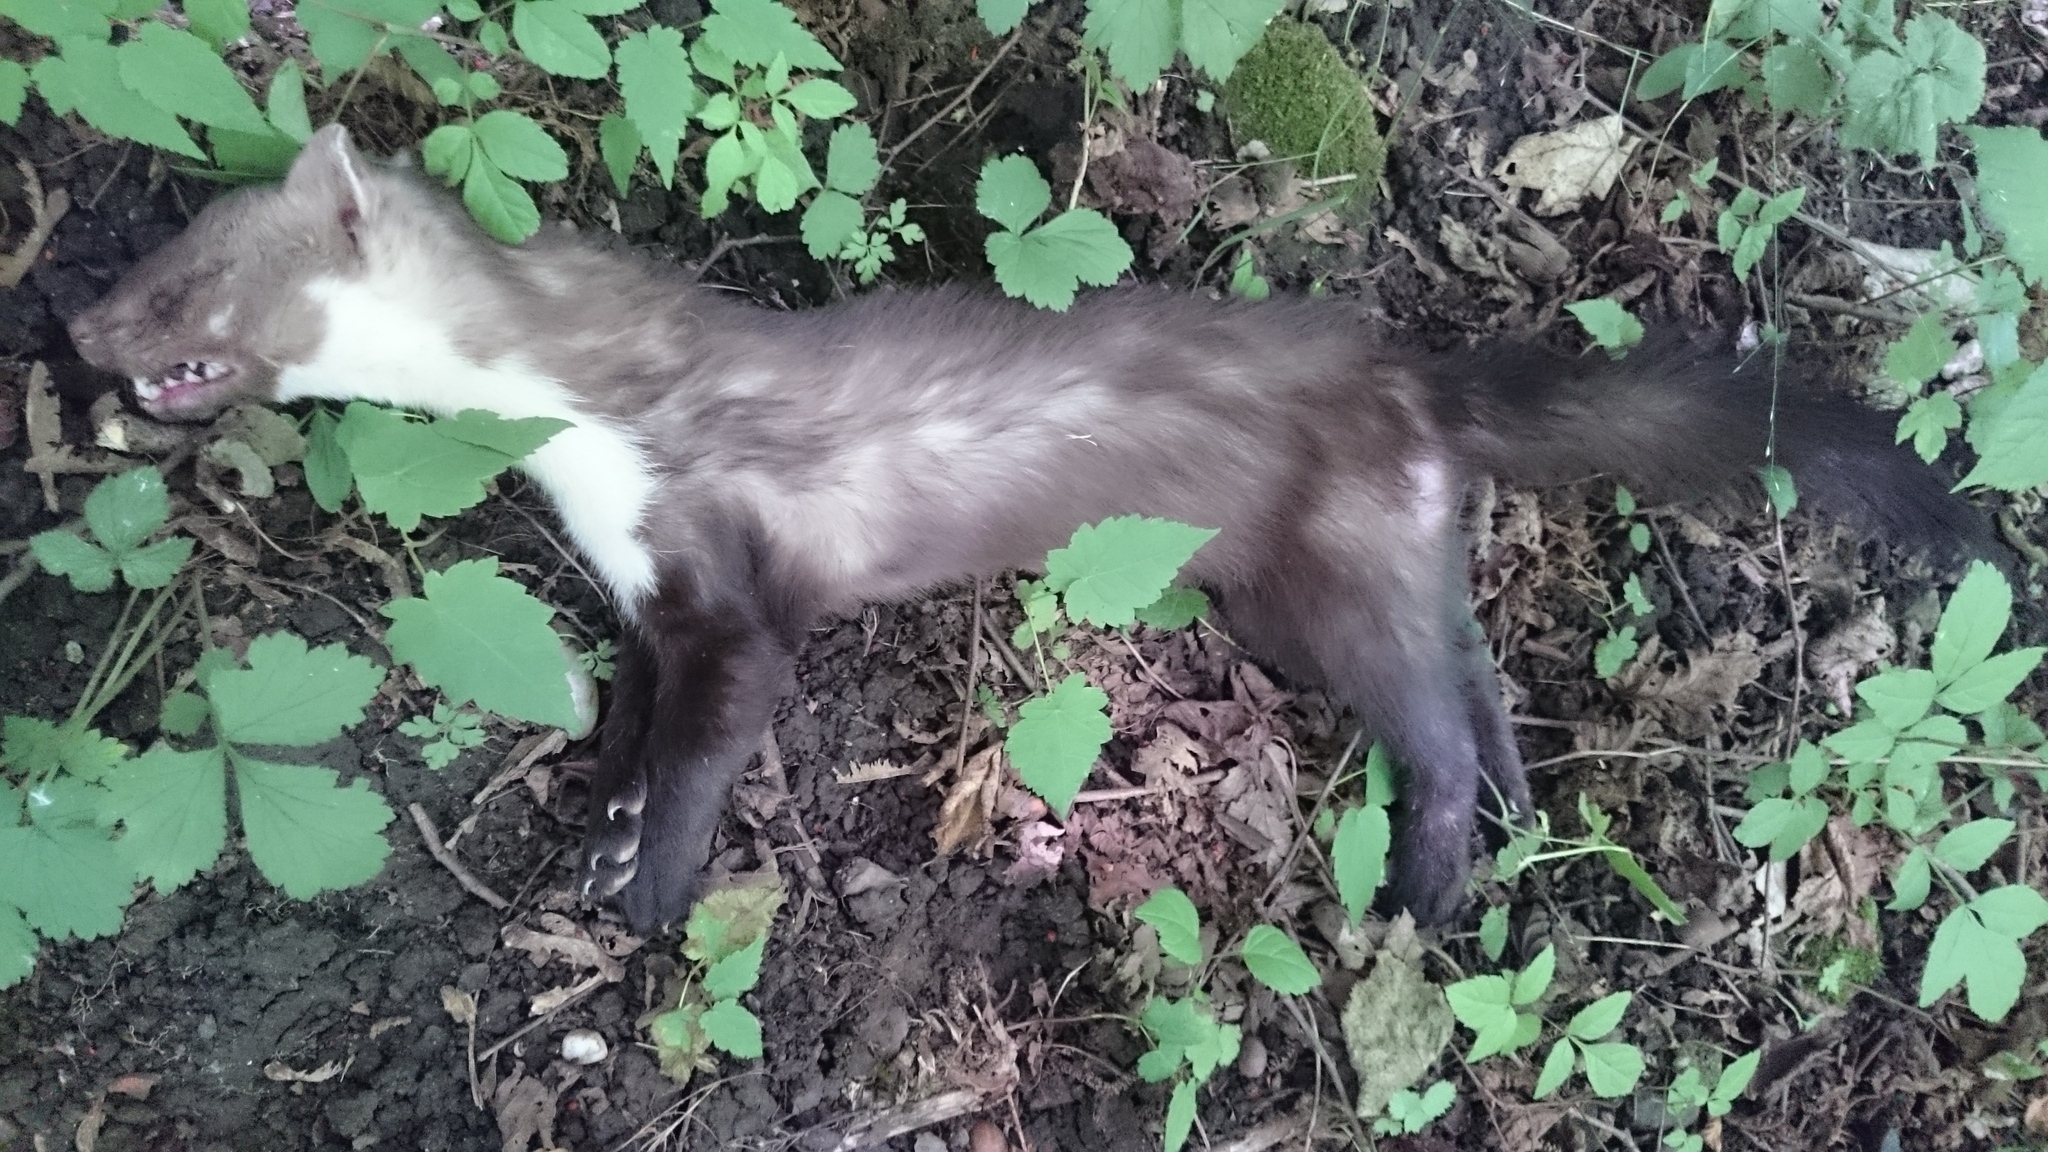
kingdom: Animalia
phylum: Chordata
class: Mammalia
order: Carnivora
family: Mustelidae
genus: Martes
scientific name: Martes foina
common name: Beech marten
